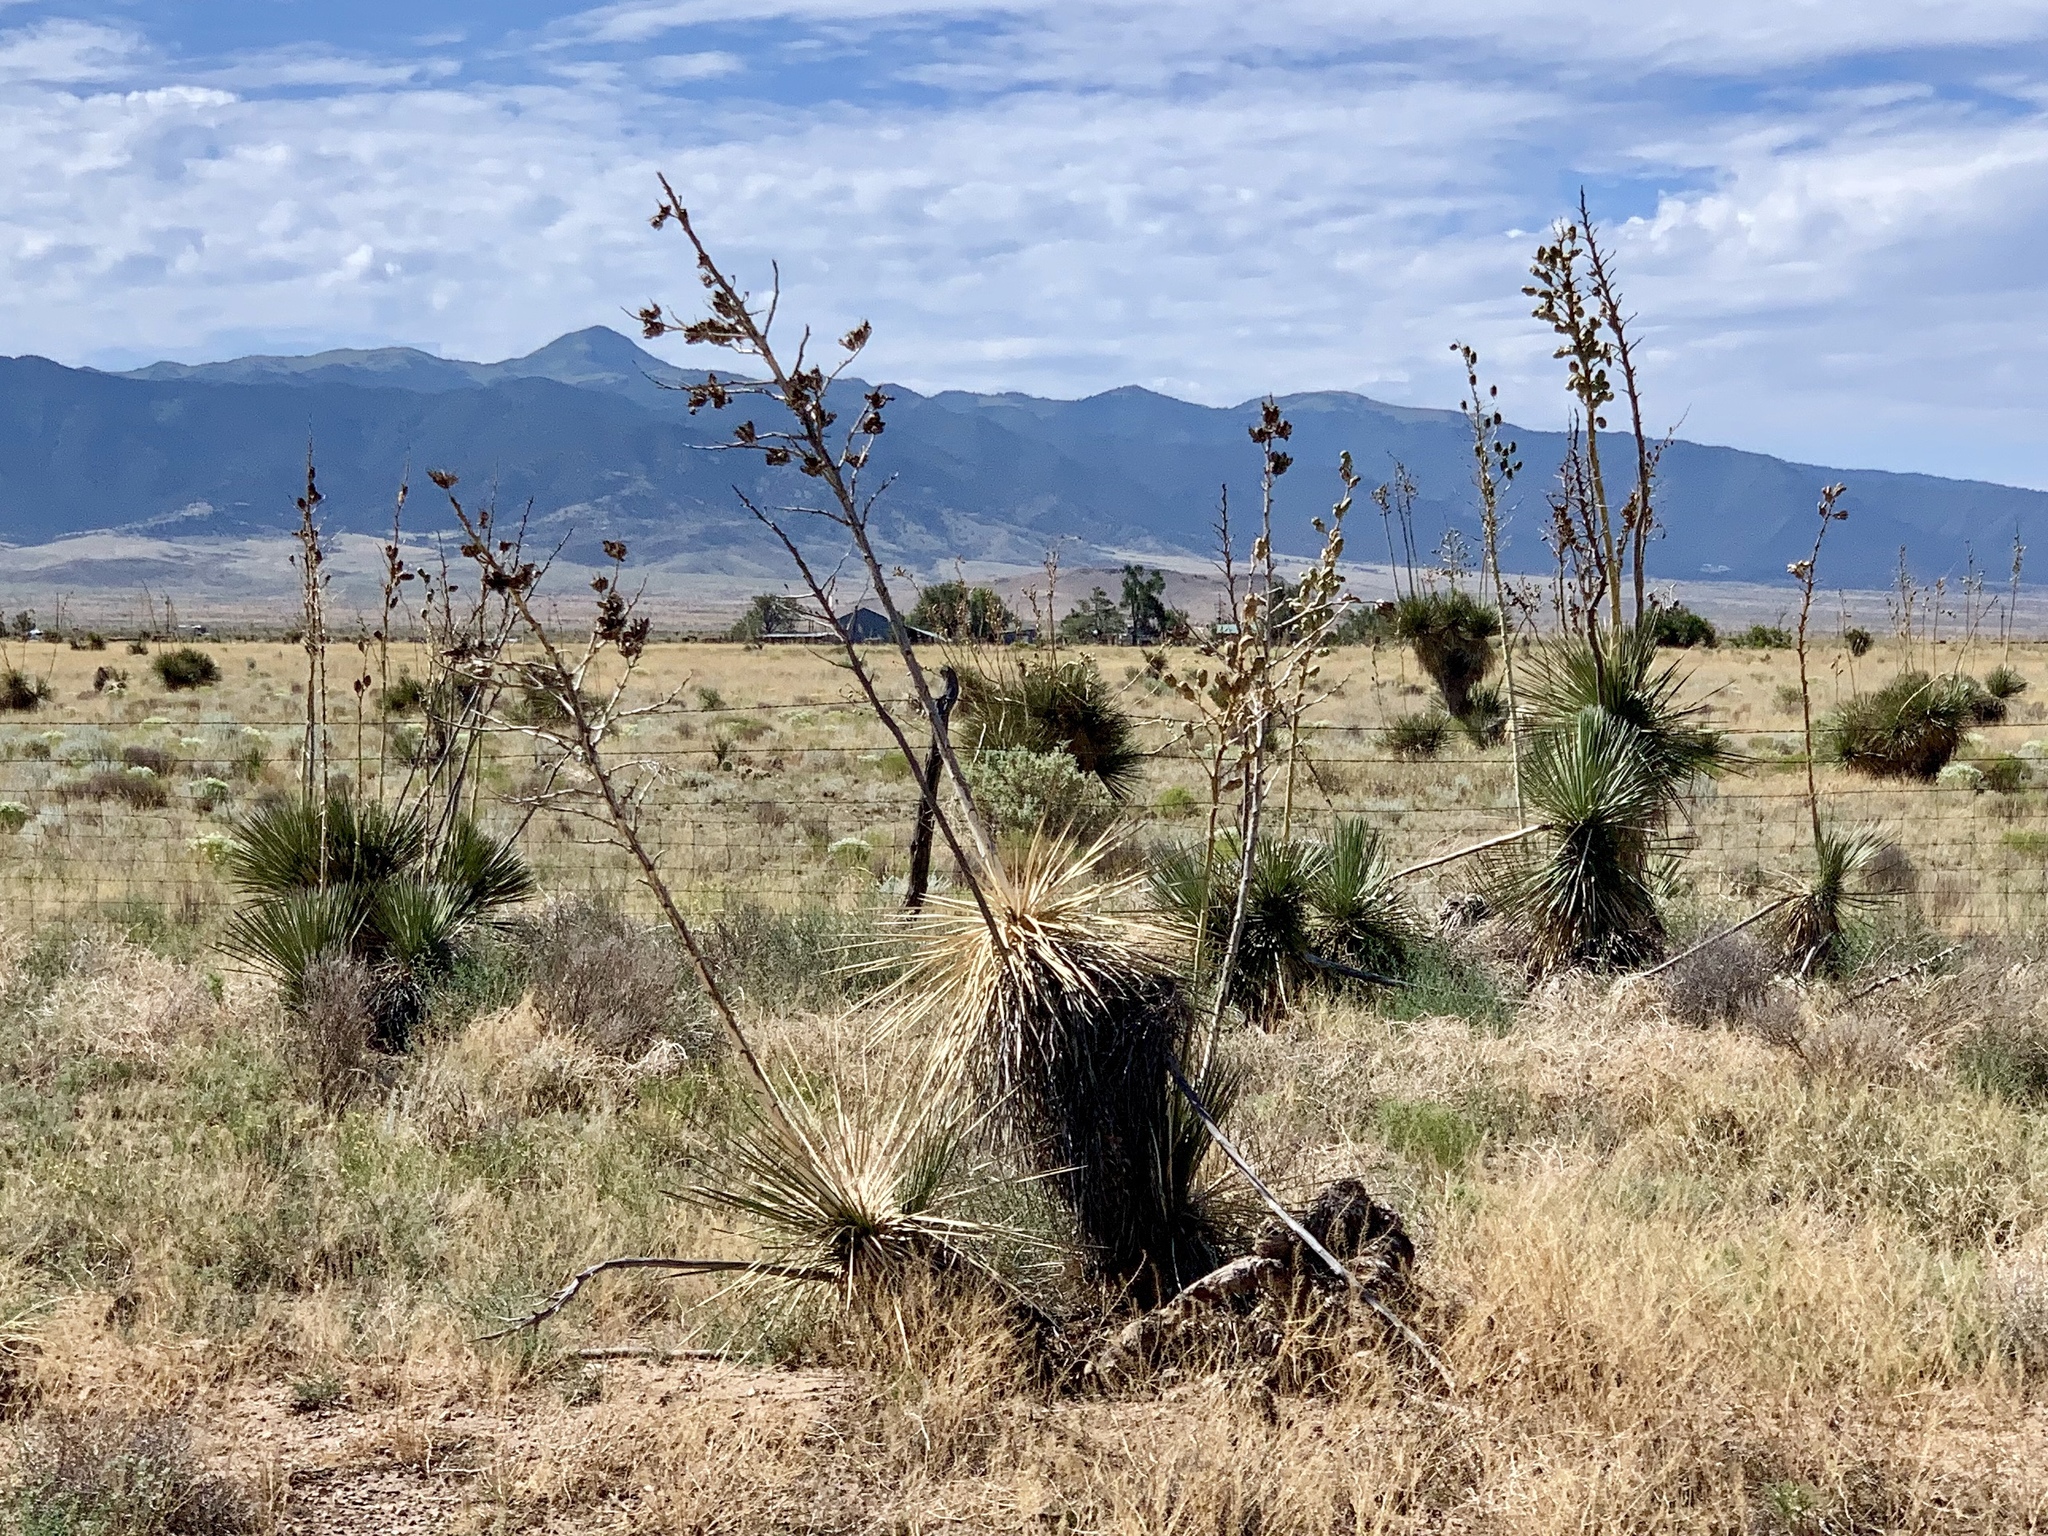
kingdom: Plantae
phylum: Tracheophyta
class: Liliopsida
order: Asparagales
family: Asparagaceae
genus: Yucca
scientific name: Yucca elata
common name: Palmella
